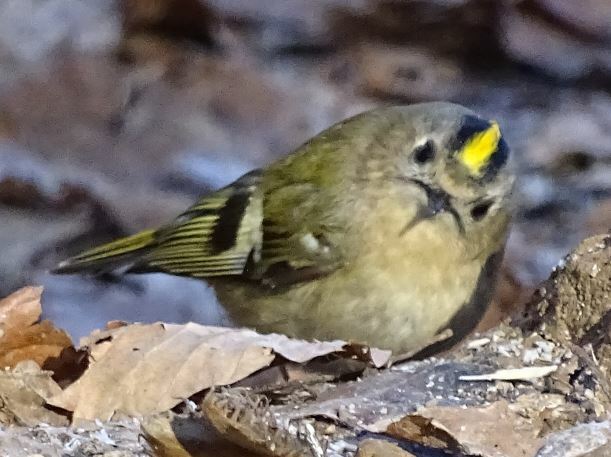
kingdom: Animalia
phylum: Chordata
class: Aves
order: Passeriformes
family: Regulidae
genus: Regulus
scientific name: Regulus regulus
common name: Goldcrest
